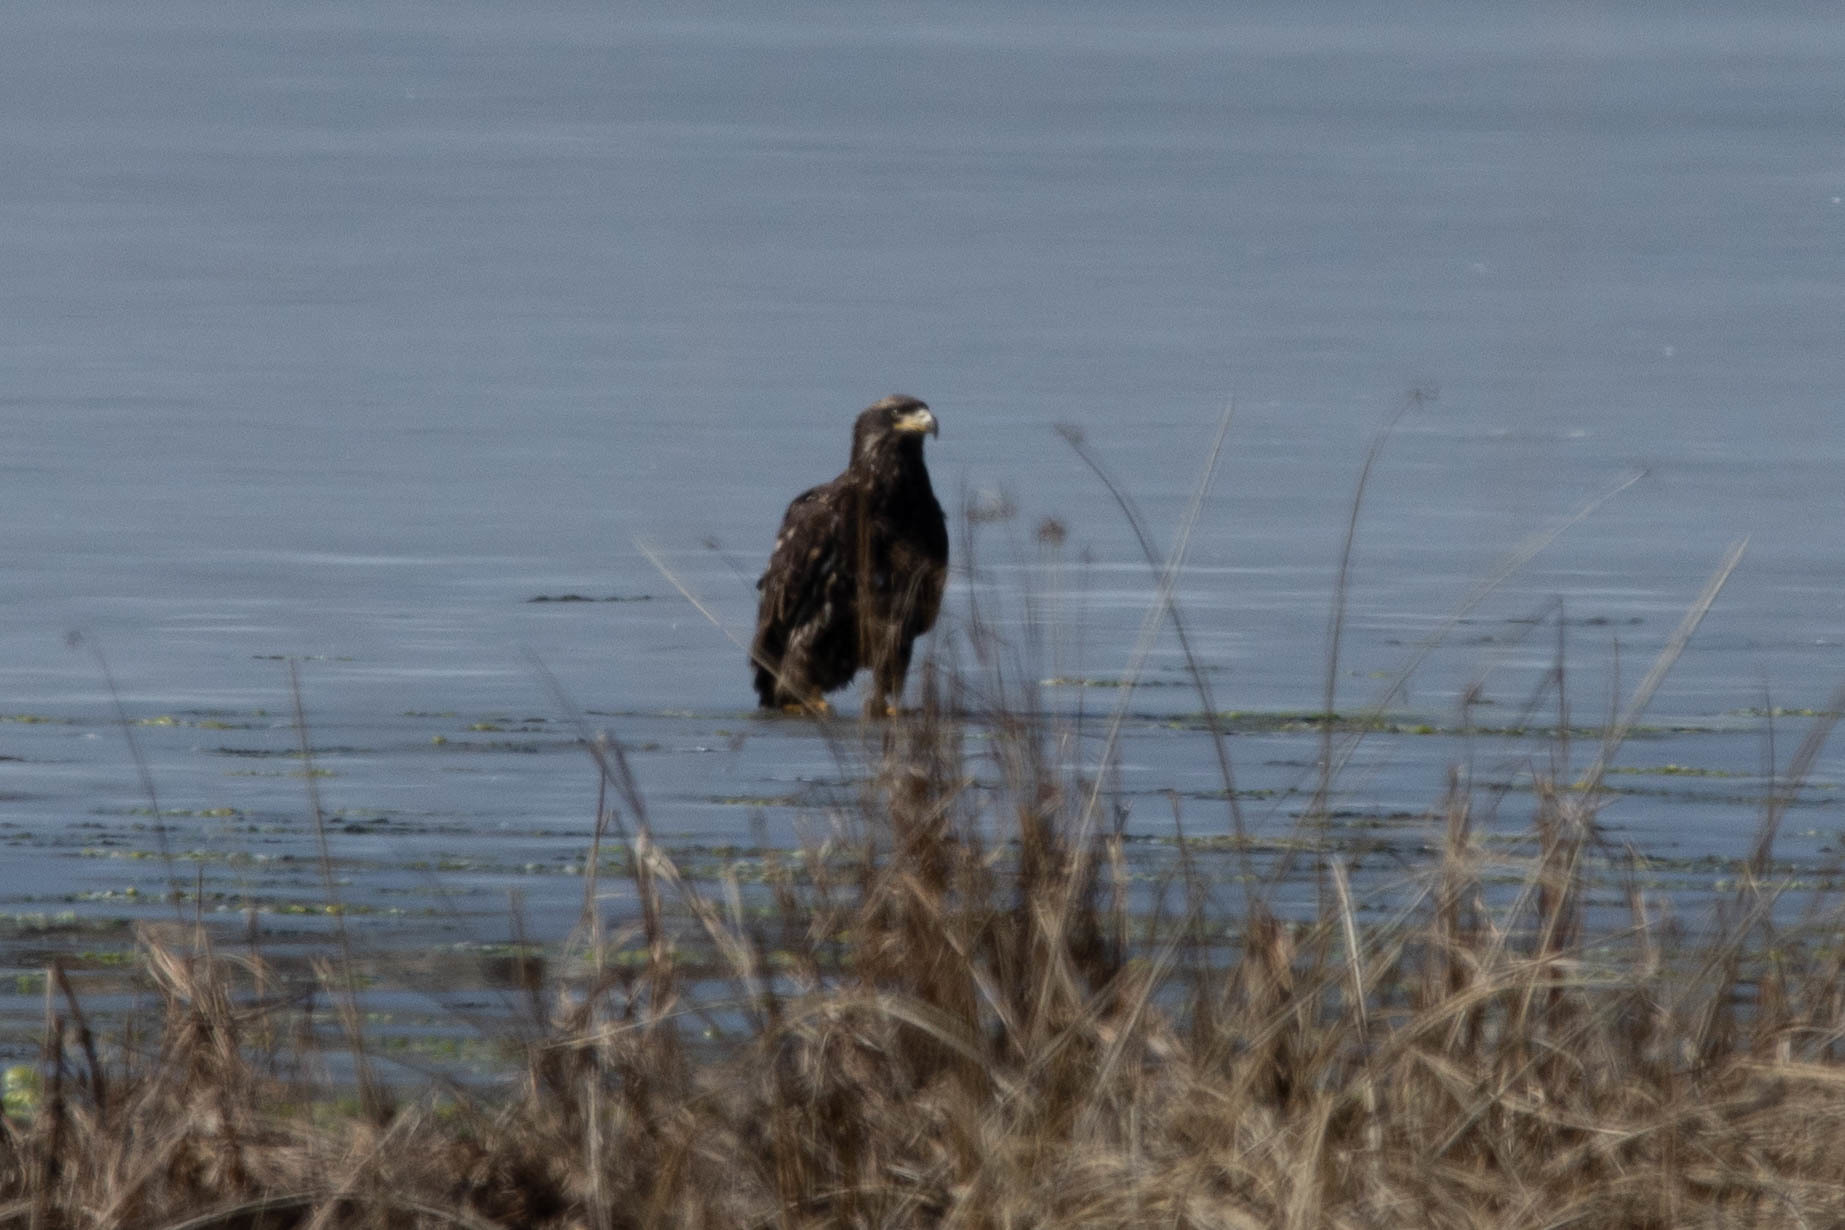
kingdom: Animalia
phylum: Chordata
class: Aves
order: Accipitriformes
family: Accipitridae
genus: Haliaeetus
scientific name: Haliaeetus leucocephalus
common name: Bald eagle
